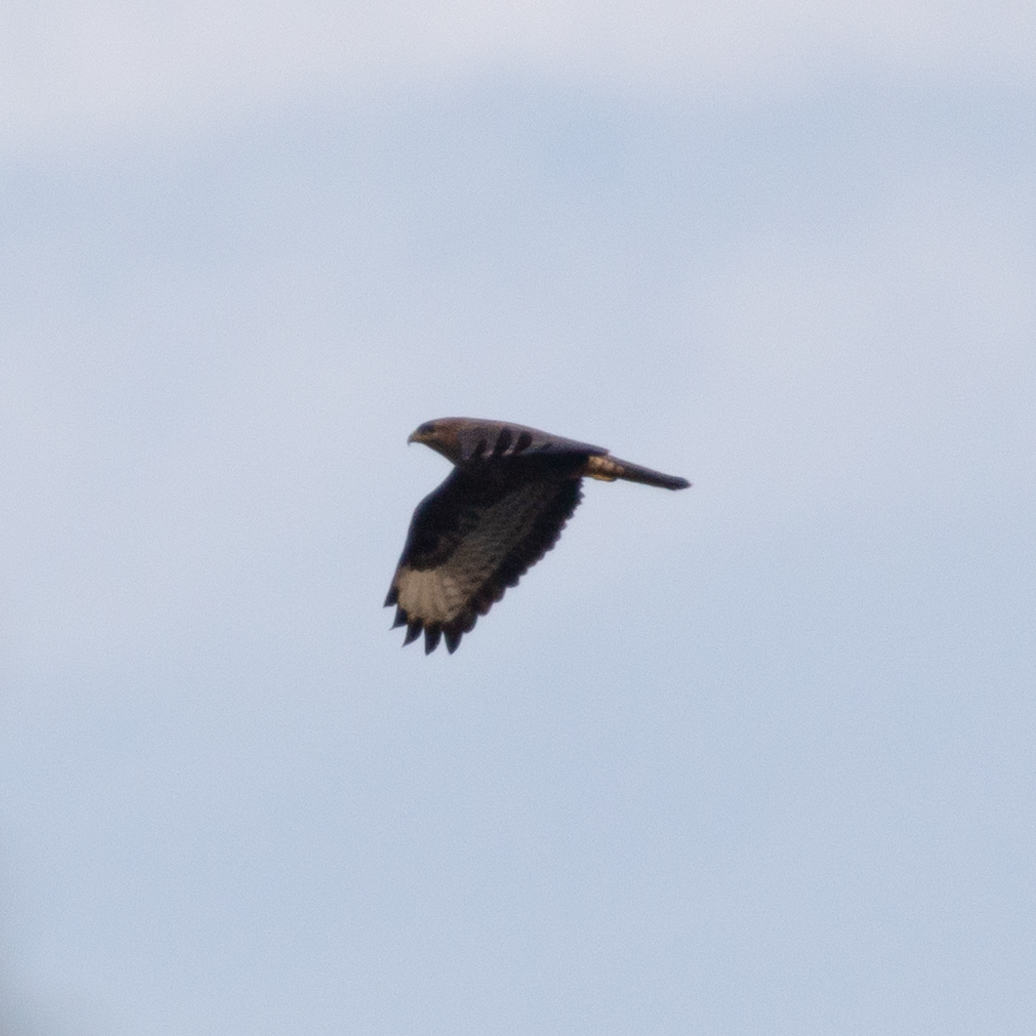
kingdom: Animalia
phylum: Chordata
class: Aves
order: Accipitriformes
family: Accipitridae
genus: Buteo
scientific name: Buteo buteo
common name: Common buzzard
